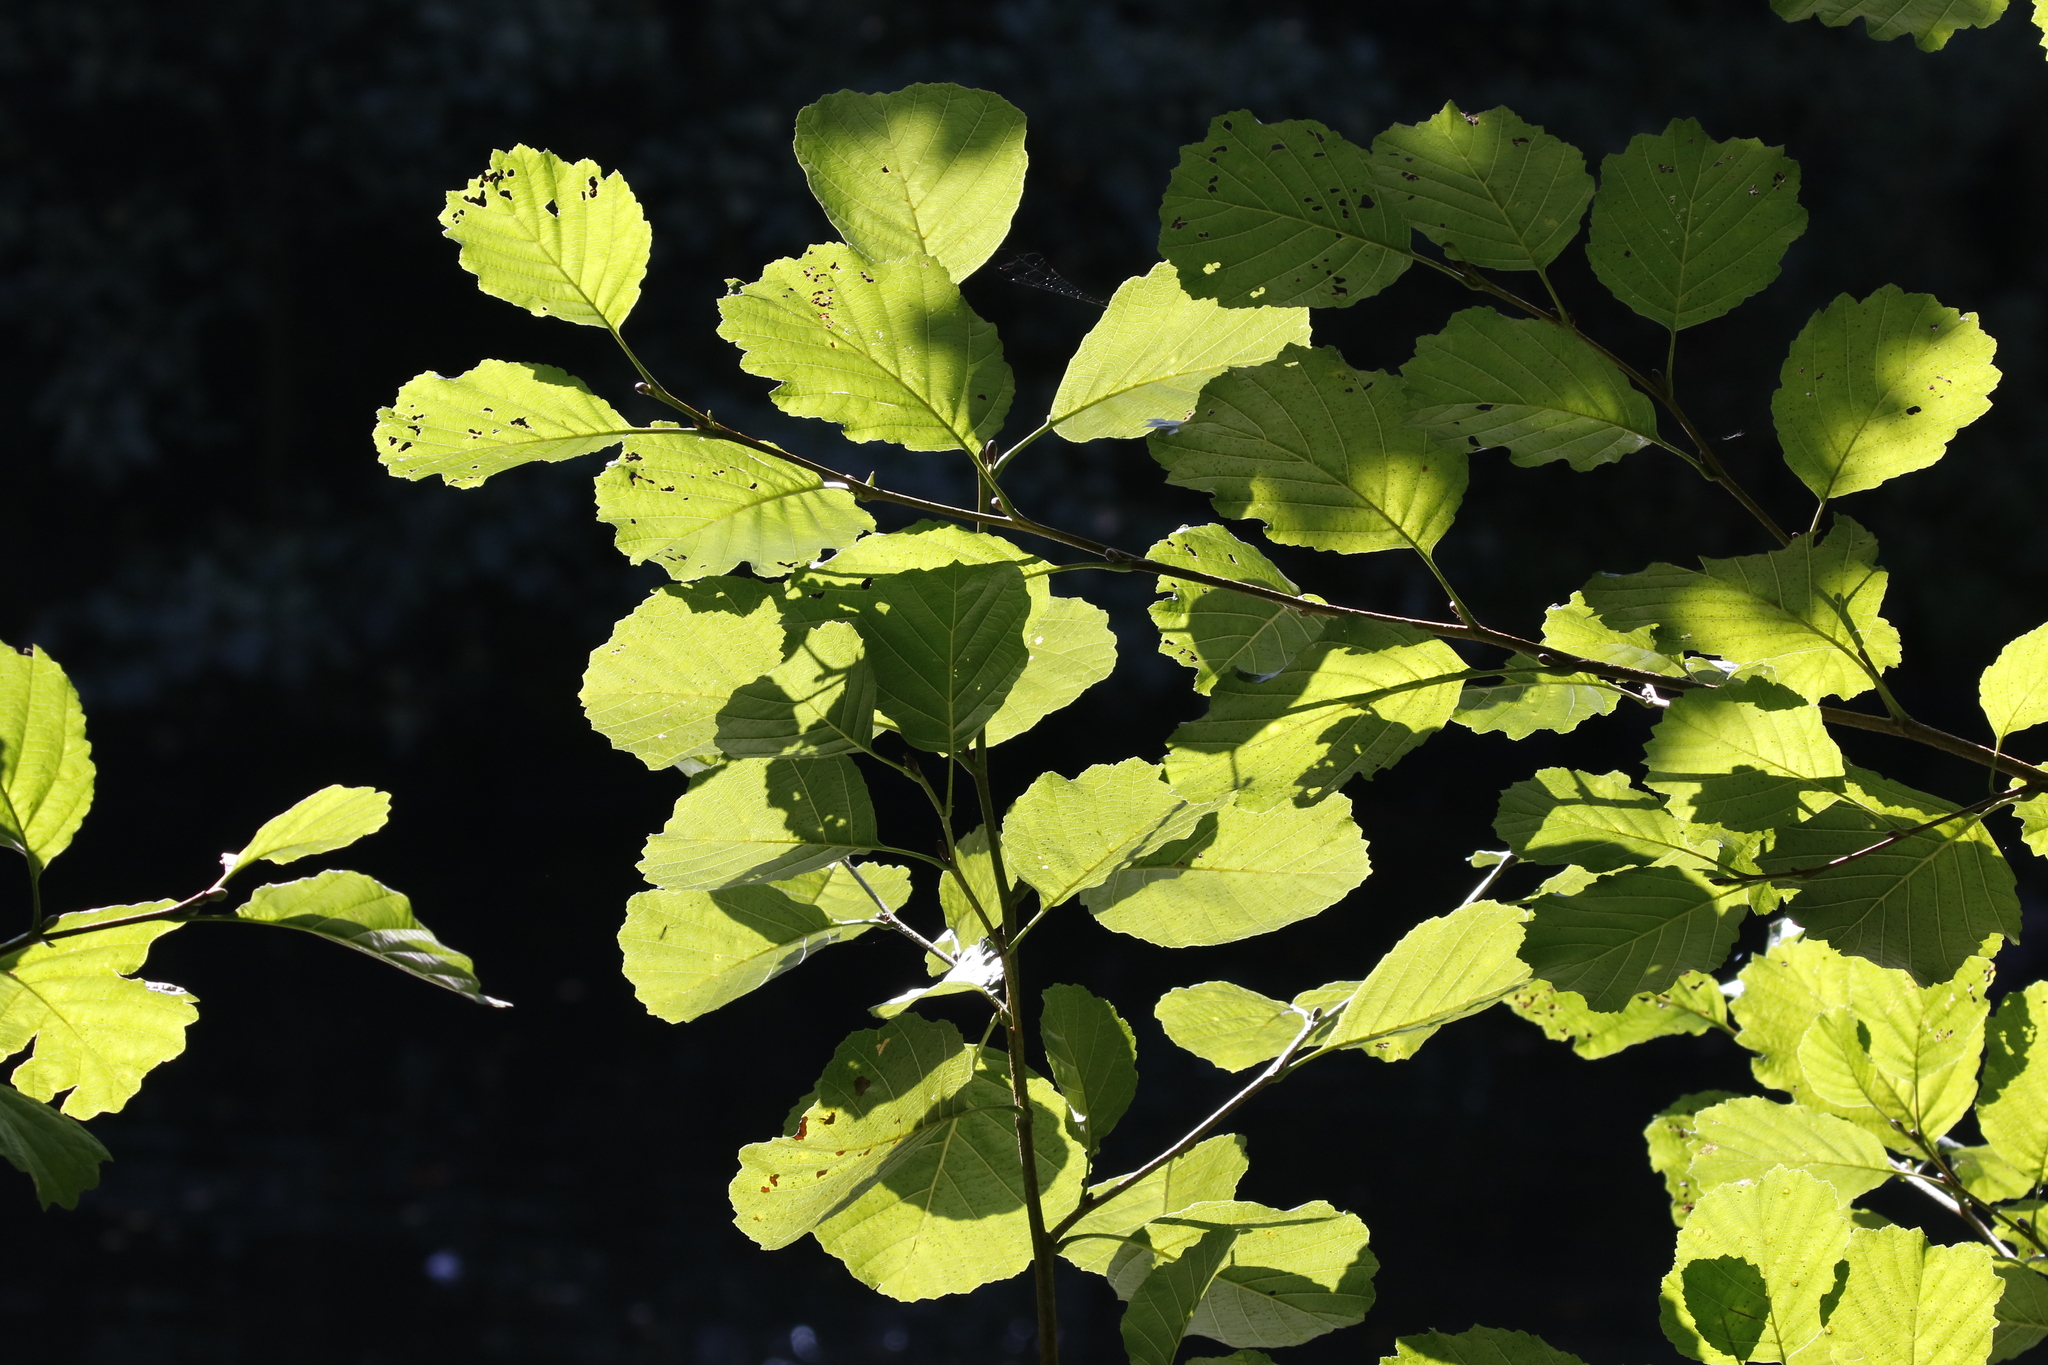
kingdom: Plantae
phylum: Tracheophyta
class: Magnoliopsida
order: Fagales
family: Betulaceae
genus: Alnus
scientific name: Alnus glutinosa
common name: Black alder
